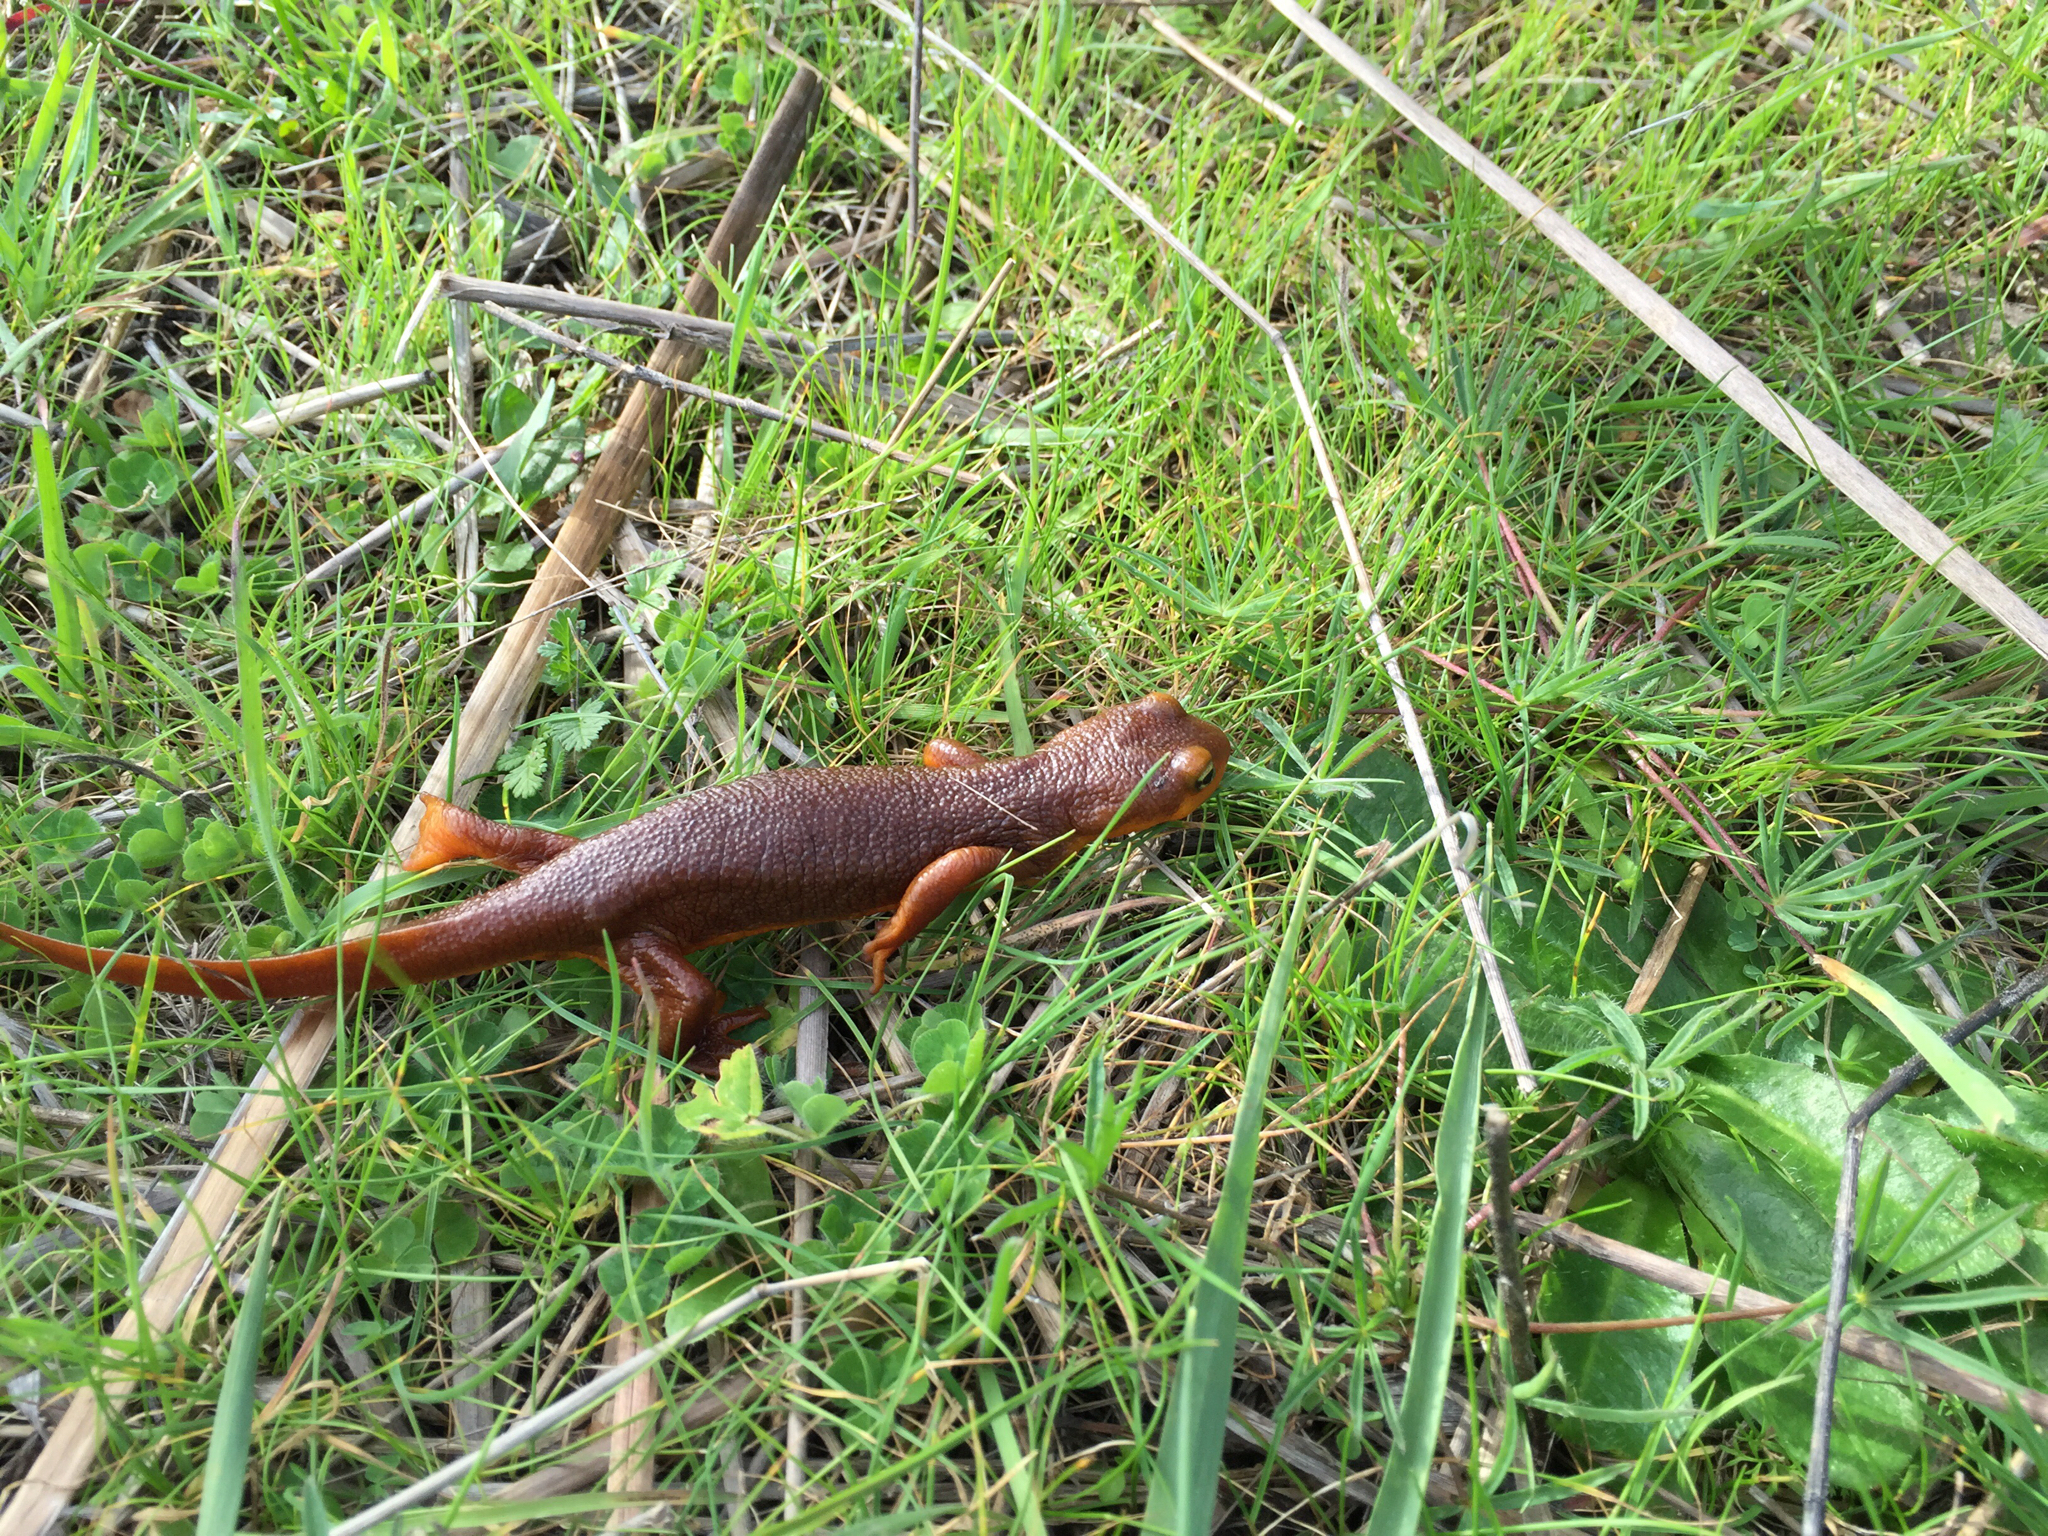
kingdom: Animalia
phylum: Chordata
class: Amphibia
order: Caudata
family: Salamandridae
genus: Taricha
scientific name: Taricha torosa
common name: California newt
